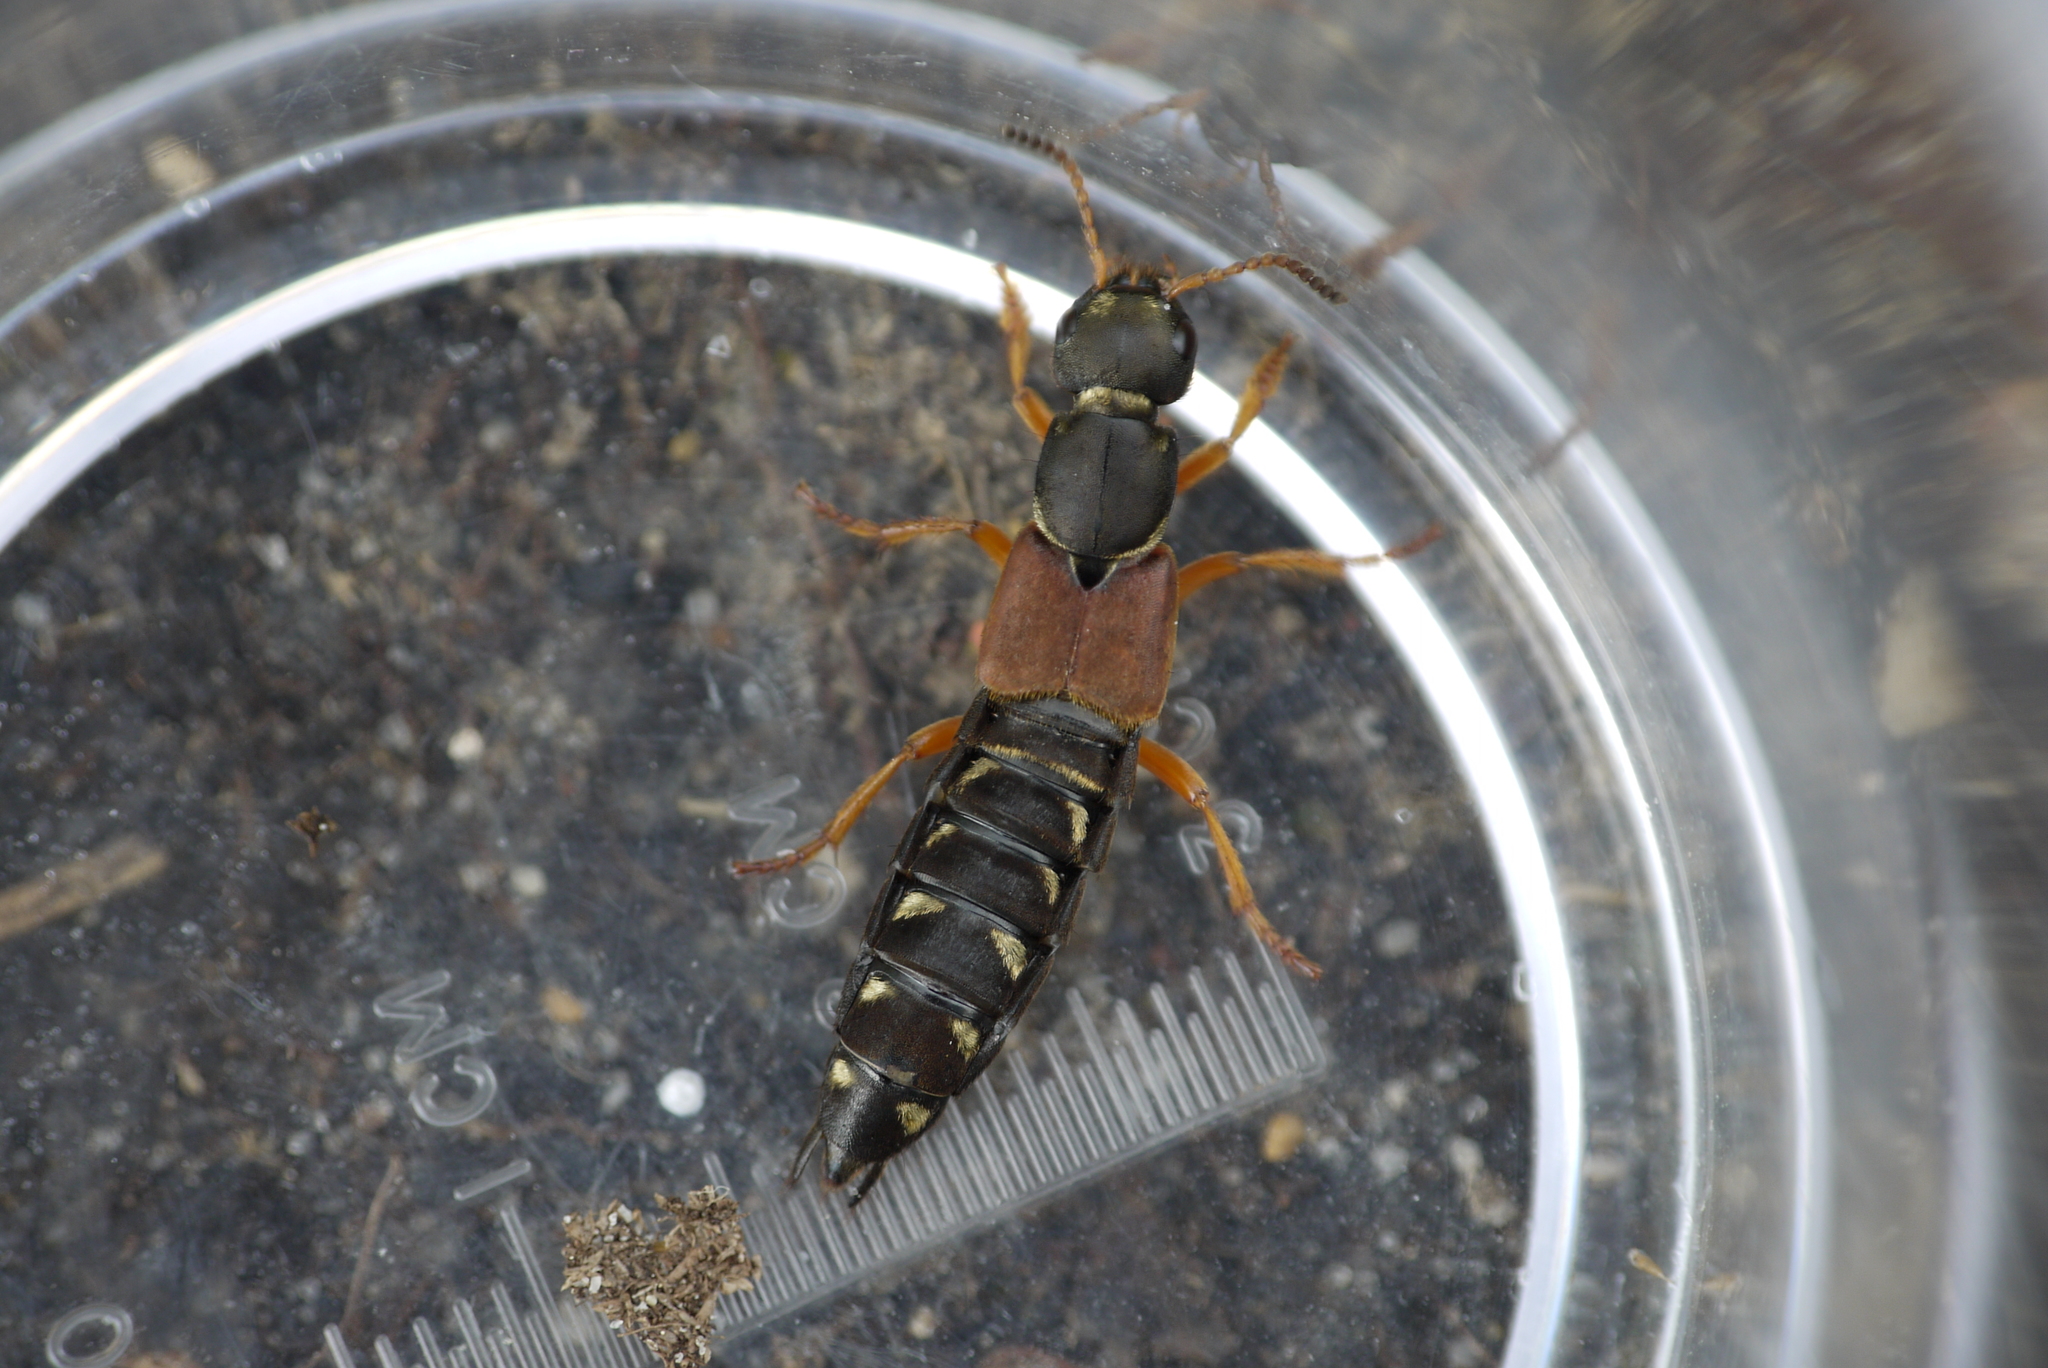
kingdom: Animalia
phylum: Arthropoda
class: Insecta
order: Coleoptera
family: Staphylinidae
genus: Staphylinus
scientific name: Staphylinus dimidiaticornis
